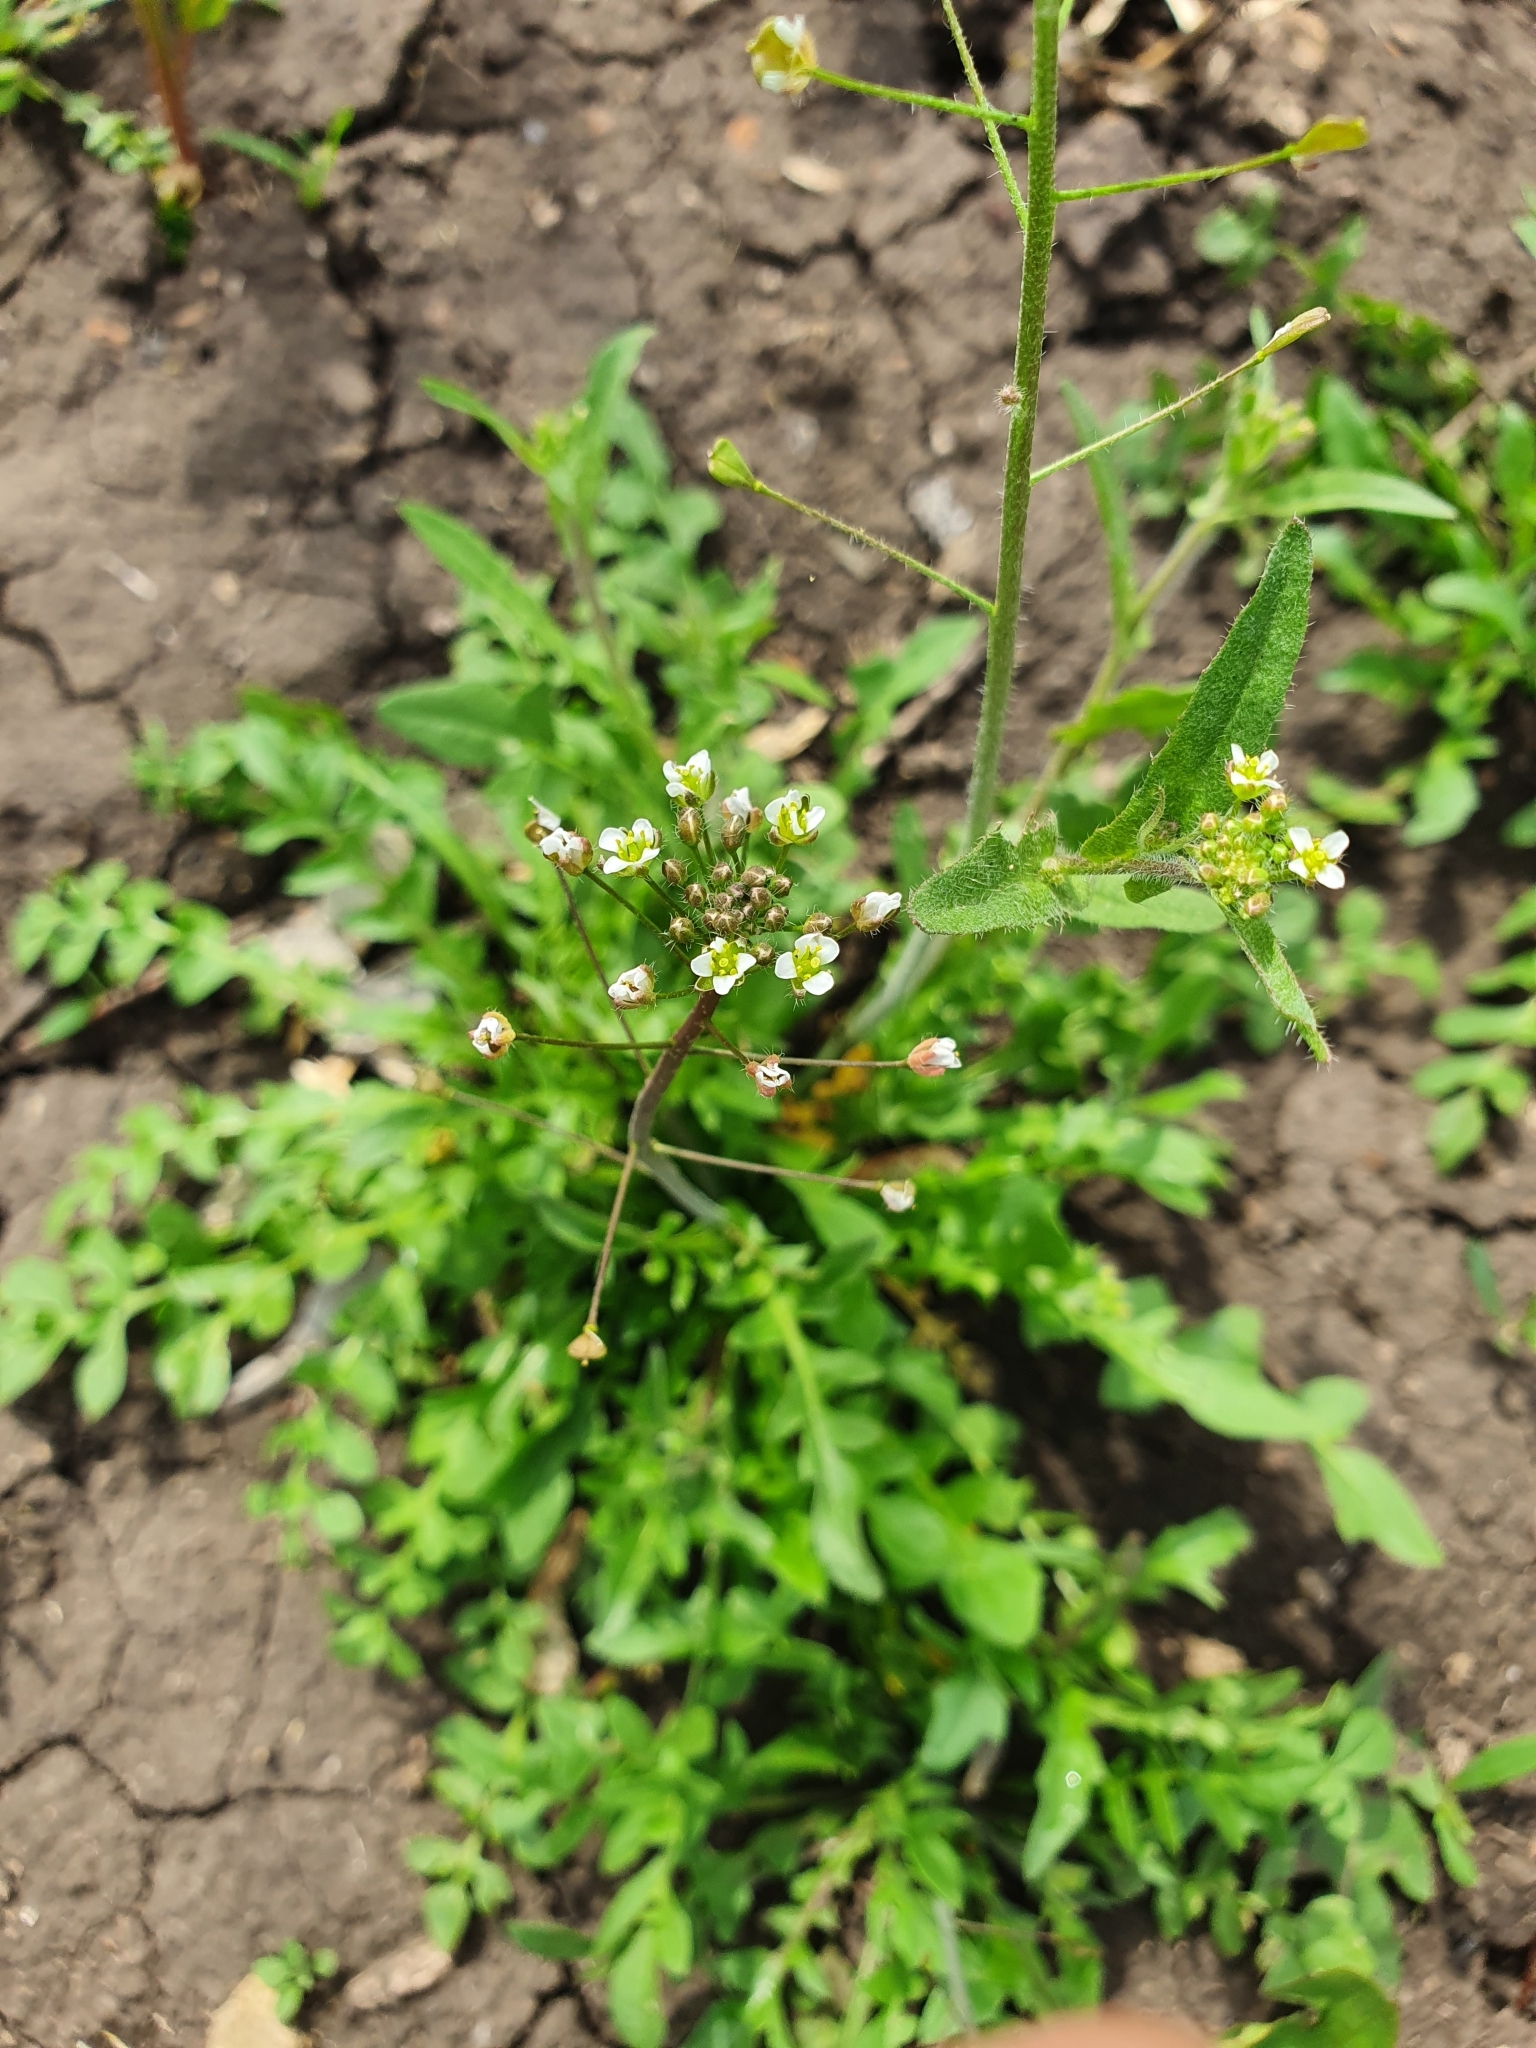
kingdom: Plantae
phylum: Tracheophyta
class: Magnoliopsida
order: Brassicales
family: Brassicaceae
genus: Capsella
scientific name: Capsella bursa-pastoris
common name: Shepherd's purse
